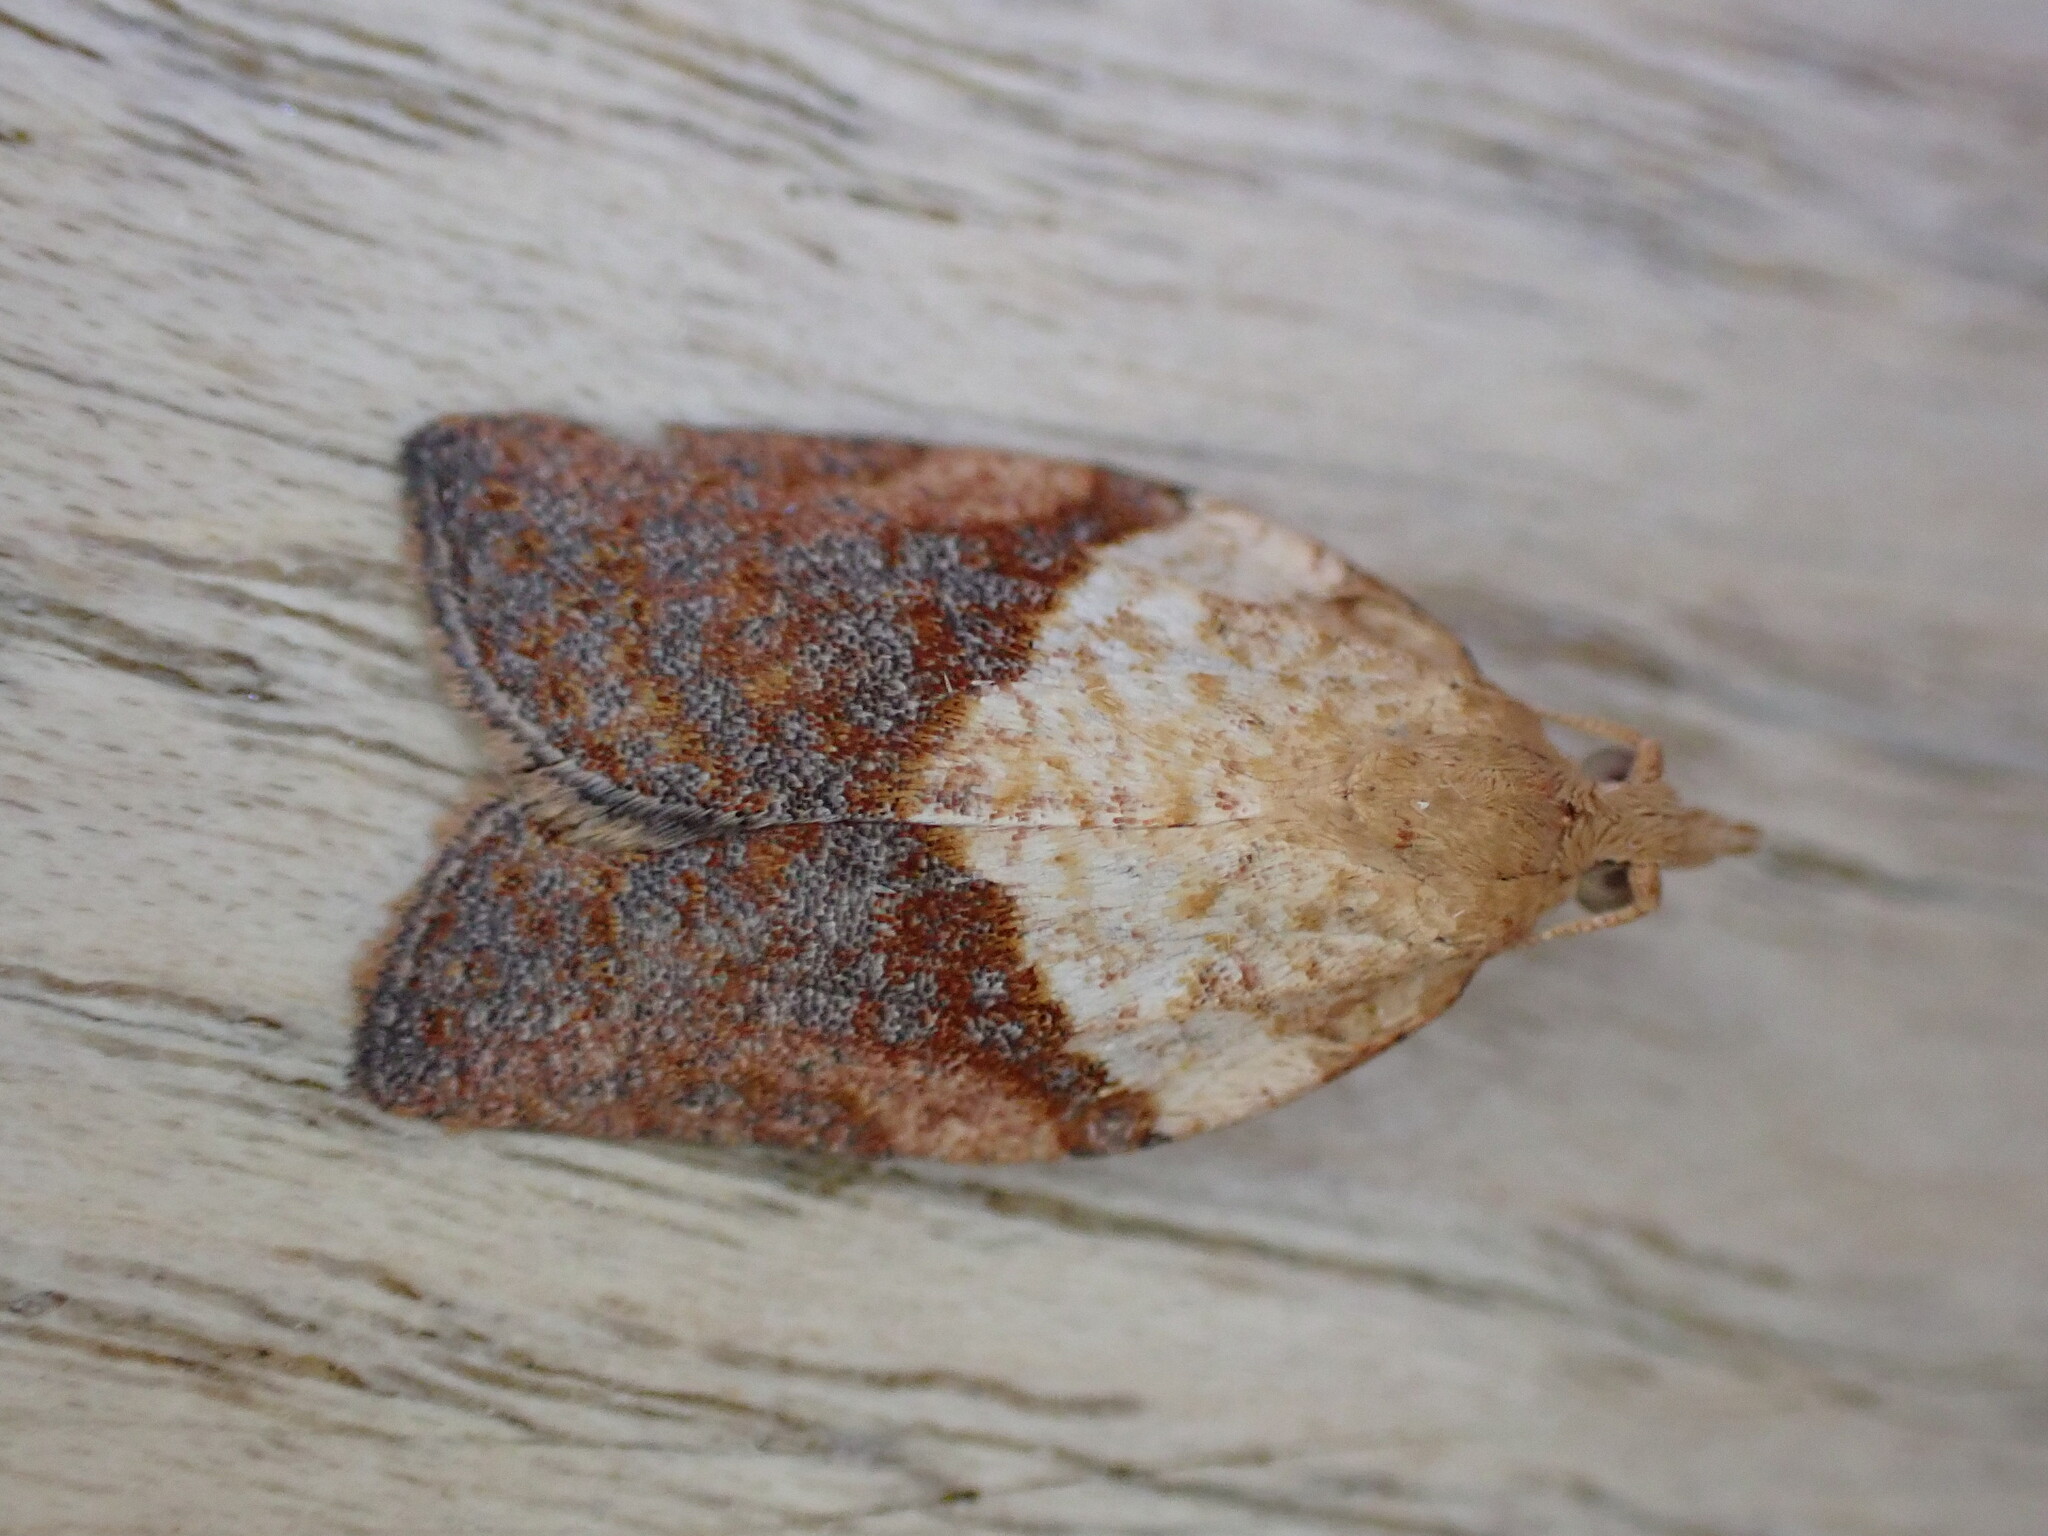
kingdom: Animalia
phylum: Arthropoda
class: Insecta
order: Lepidoptera
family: Tortricidae
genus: Epiphyas
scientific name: Epiphyas postvittana
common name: Light brown apple moth
